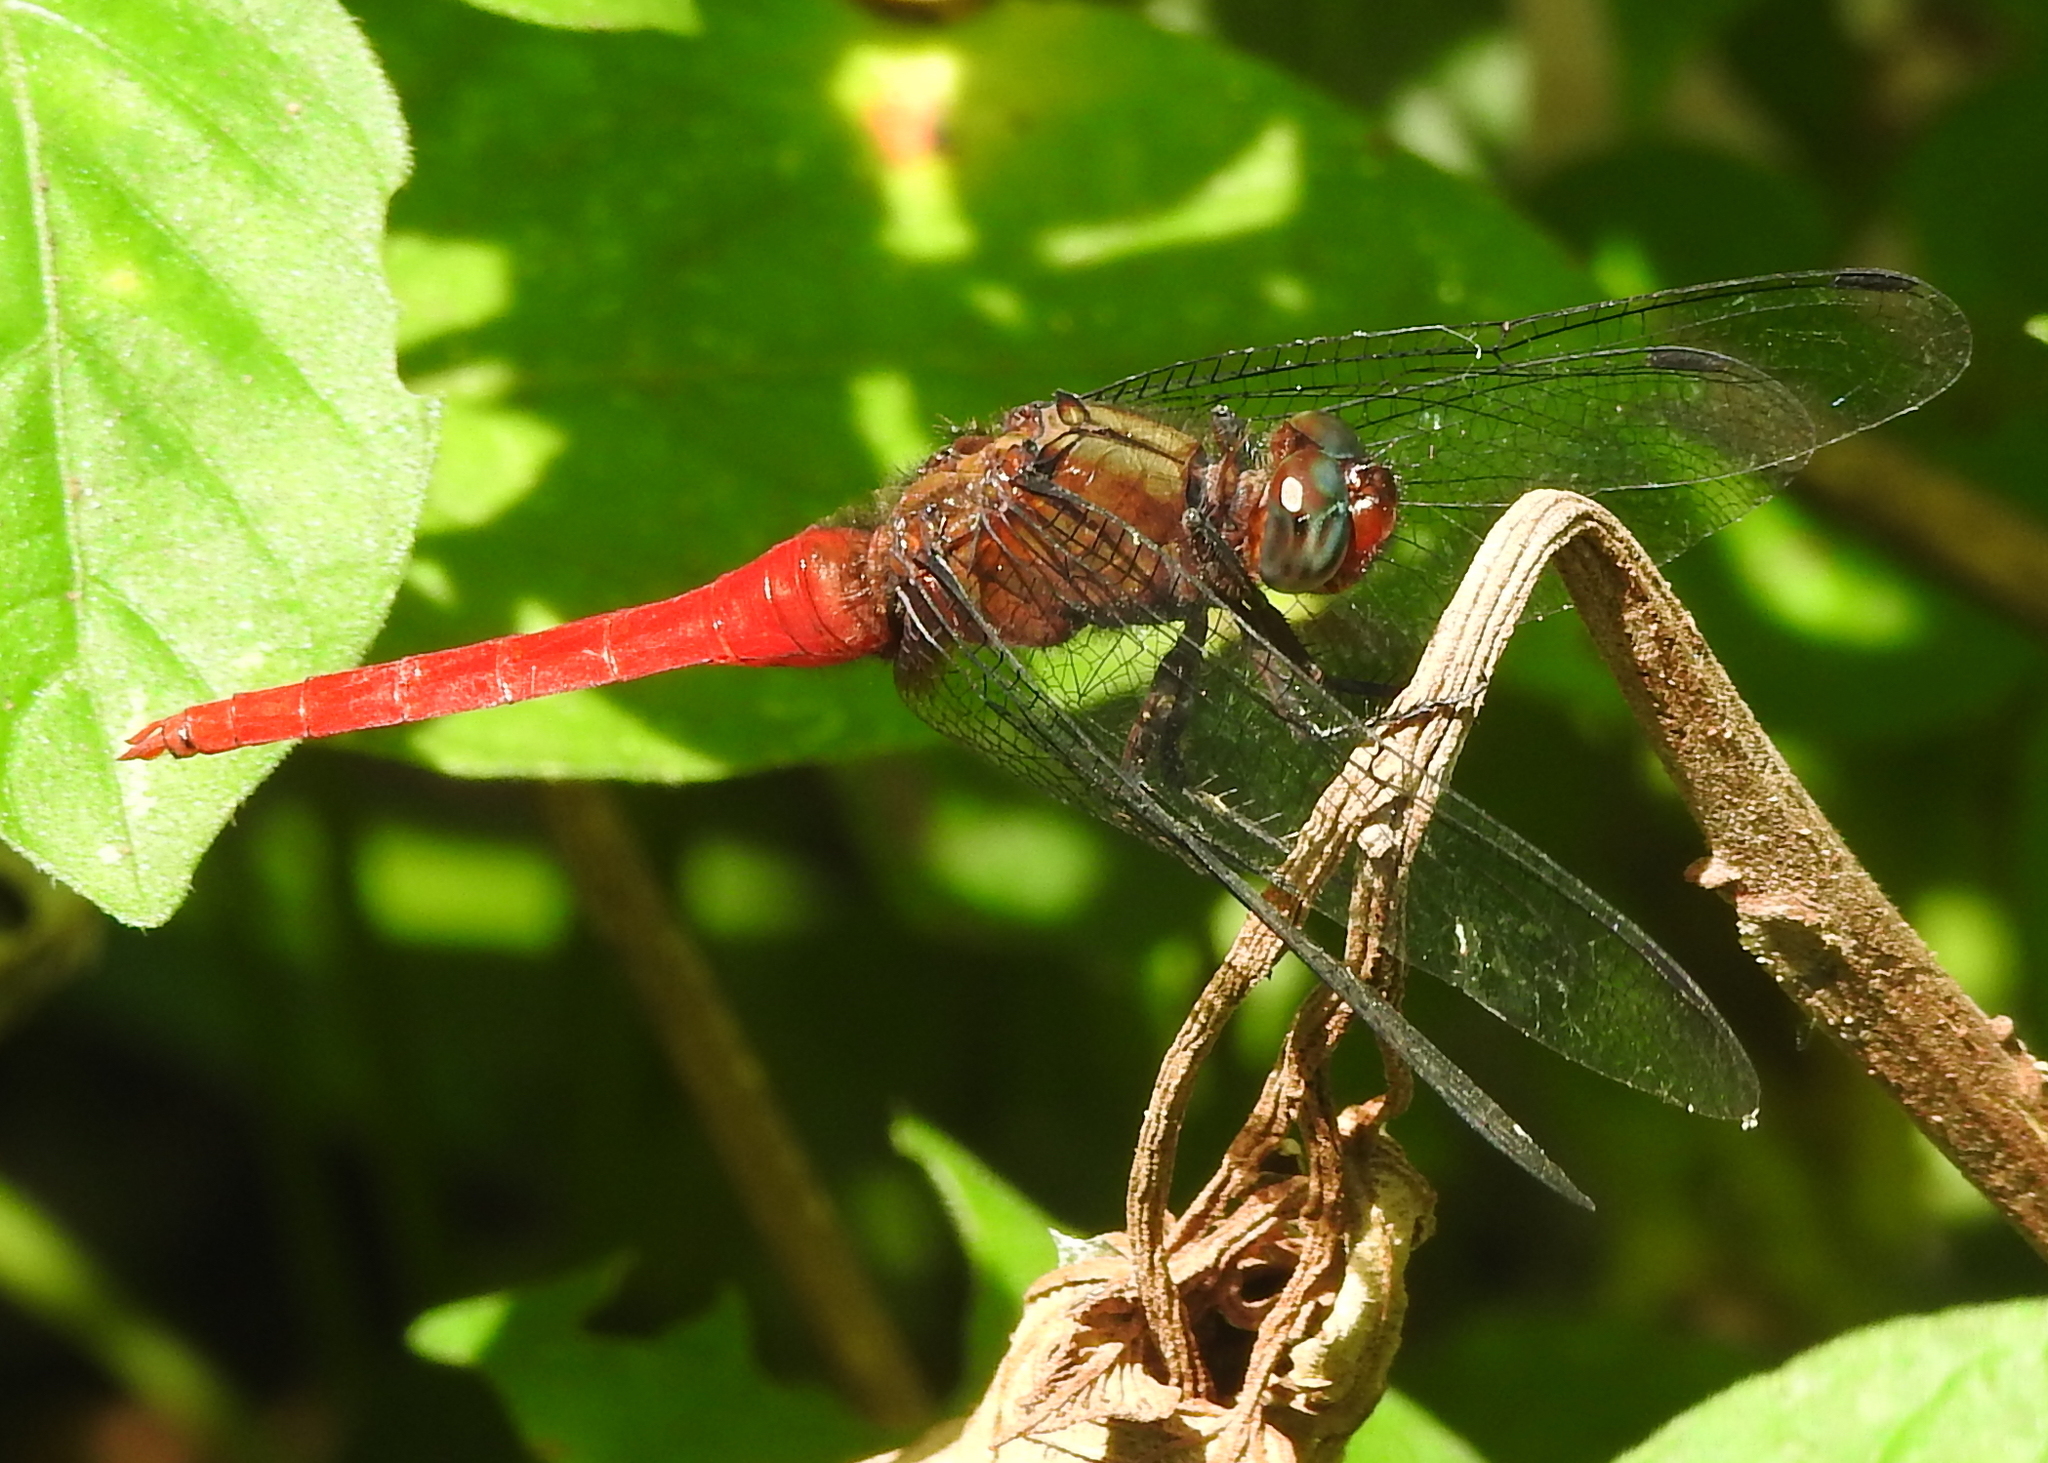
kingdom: Animalia
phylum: Arthropoda
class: Insecta
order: Odonata
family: Libellulidae
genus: Orthetrum
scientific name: Orthetrum chrysis
